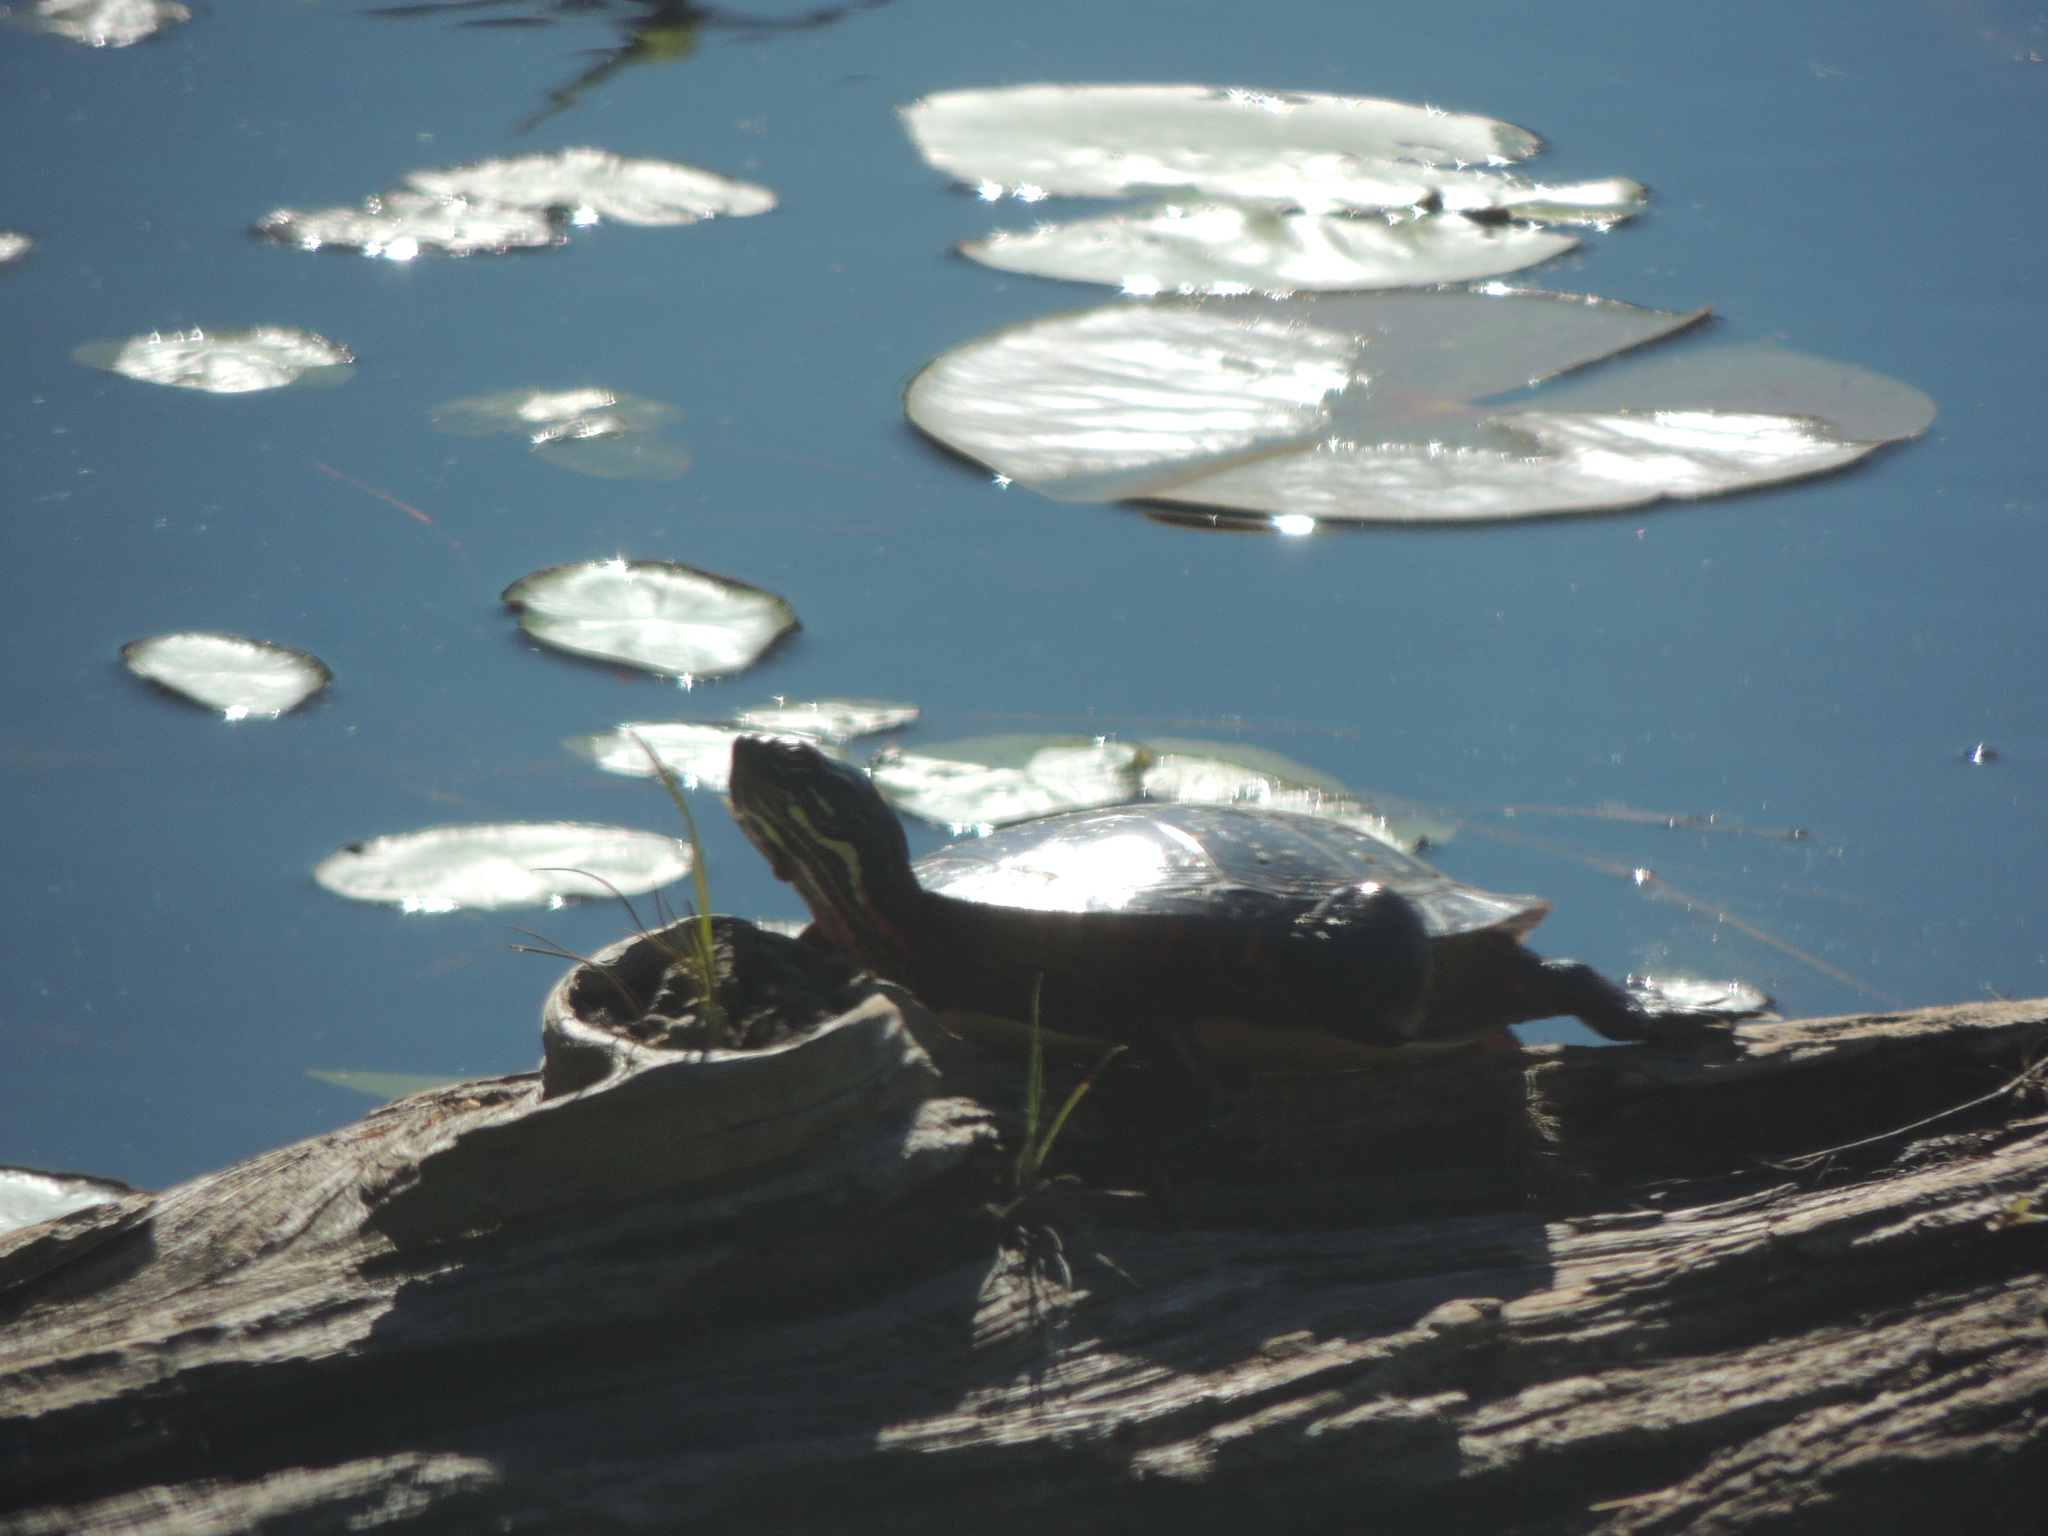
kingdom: Animalia
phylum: Chordata
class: Testudines
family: Emydidae
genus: Chrysemys
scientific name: Chrysemys picta
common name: Painted turtle
